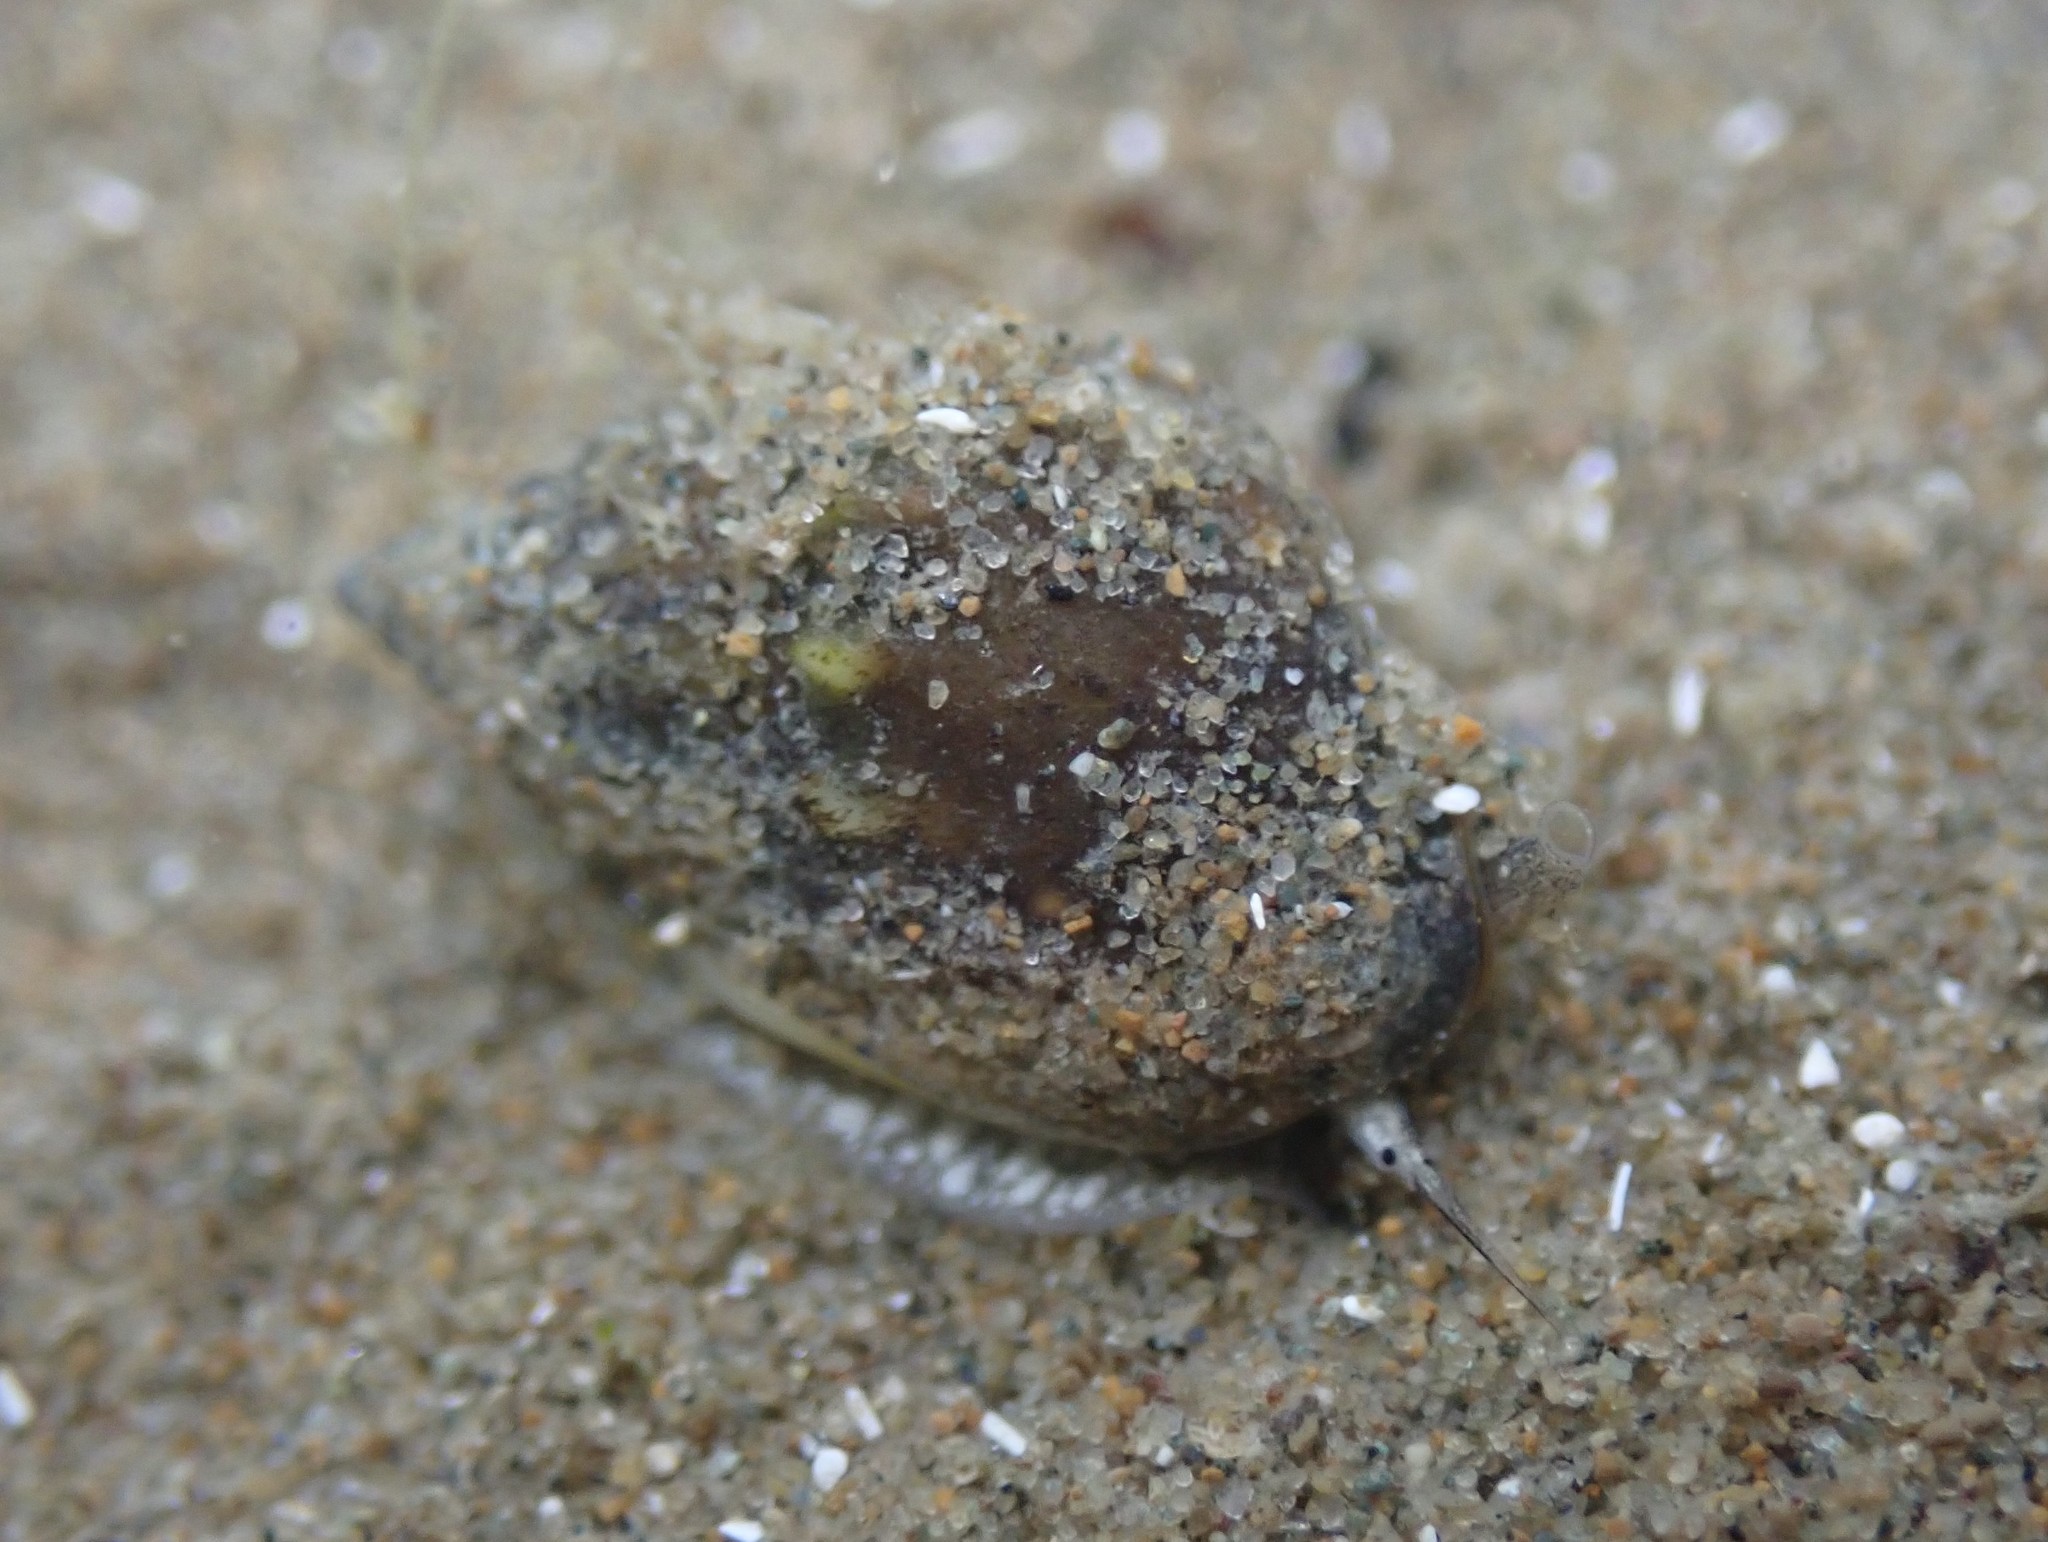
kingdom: Animalia
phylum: Mollusca
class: Gastropoda
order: Neogastropoda
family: Nassariidae
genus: Tritia
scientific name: Tritia burchardi
